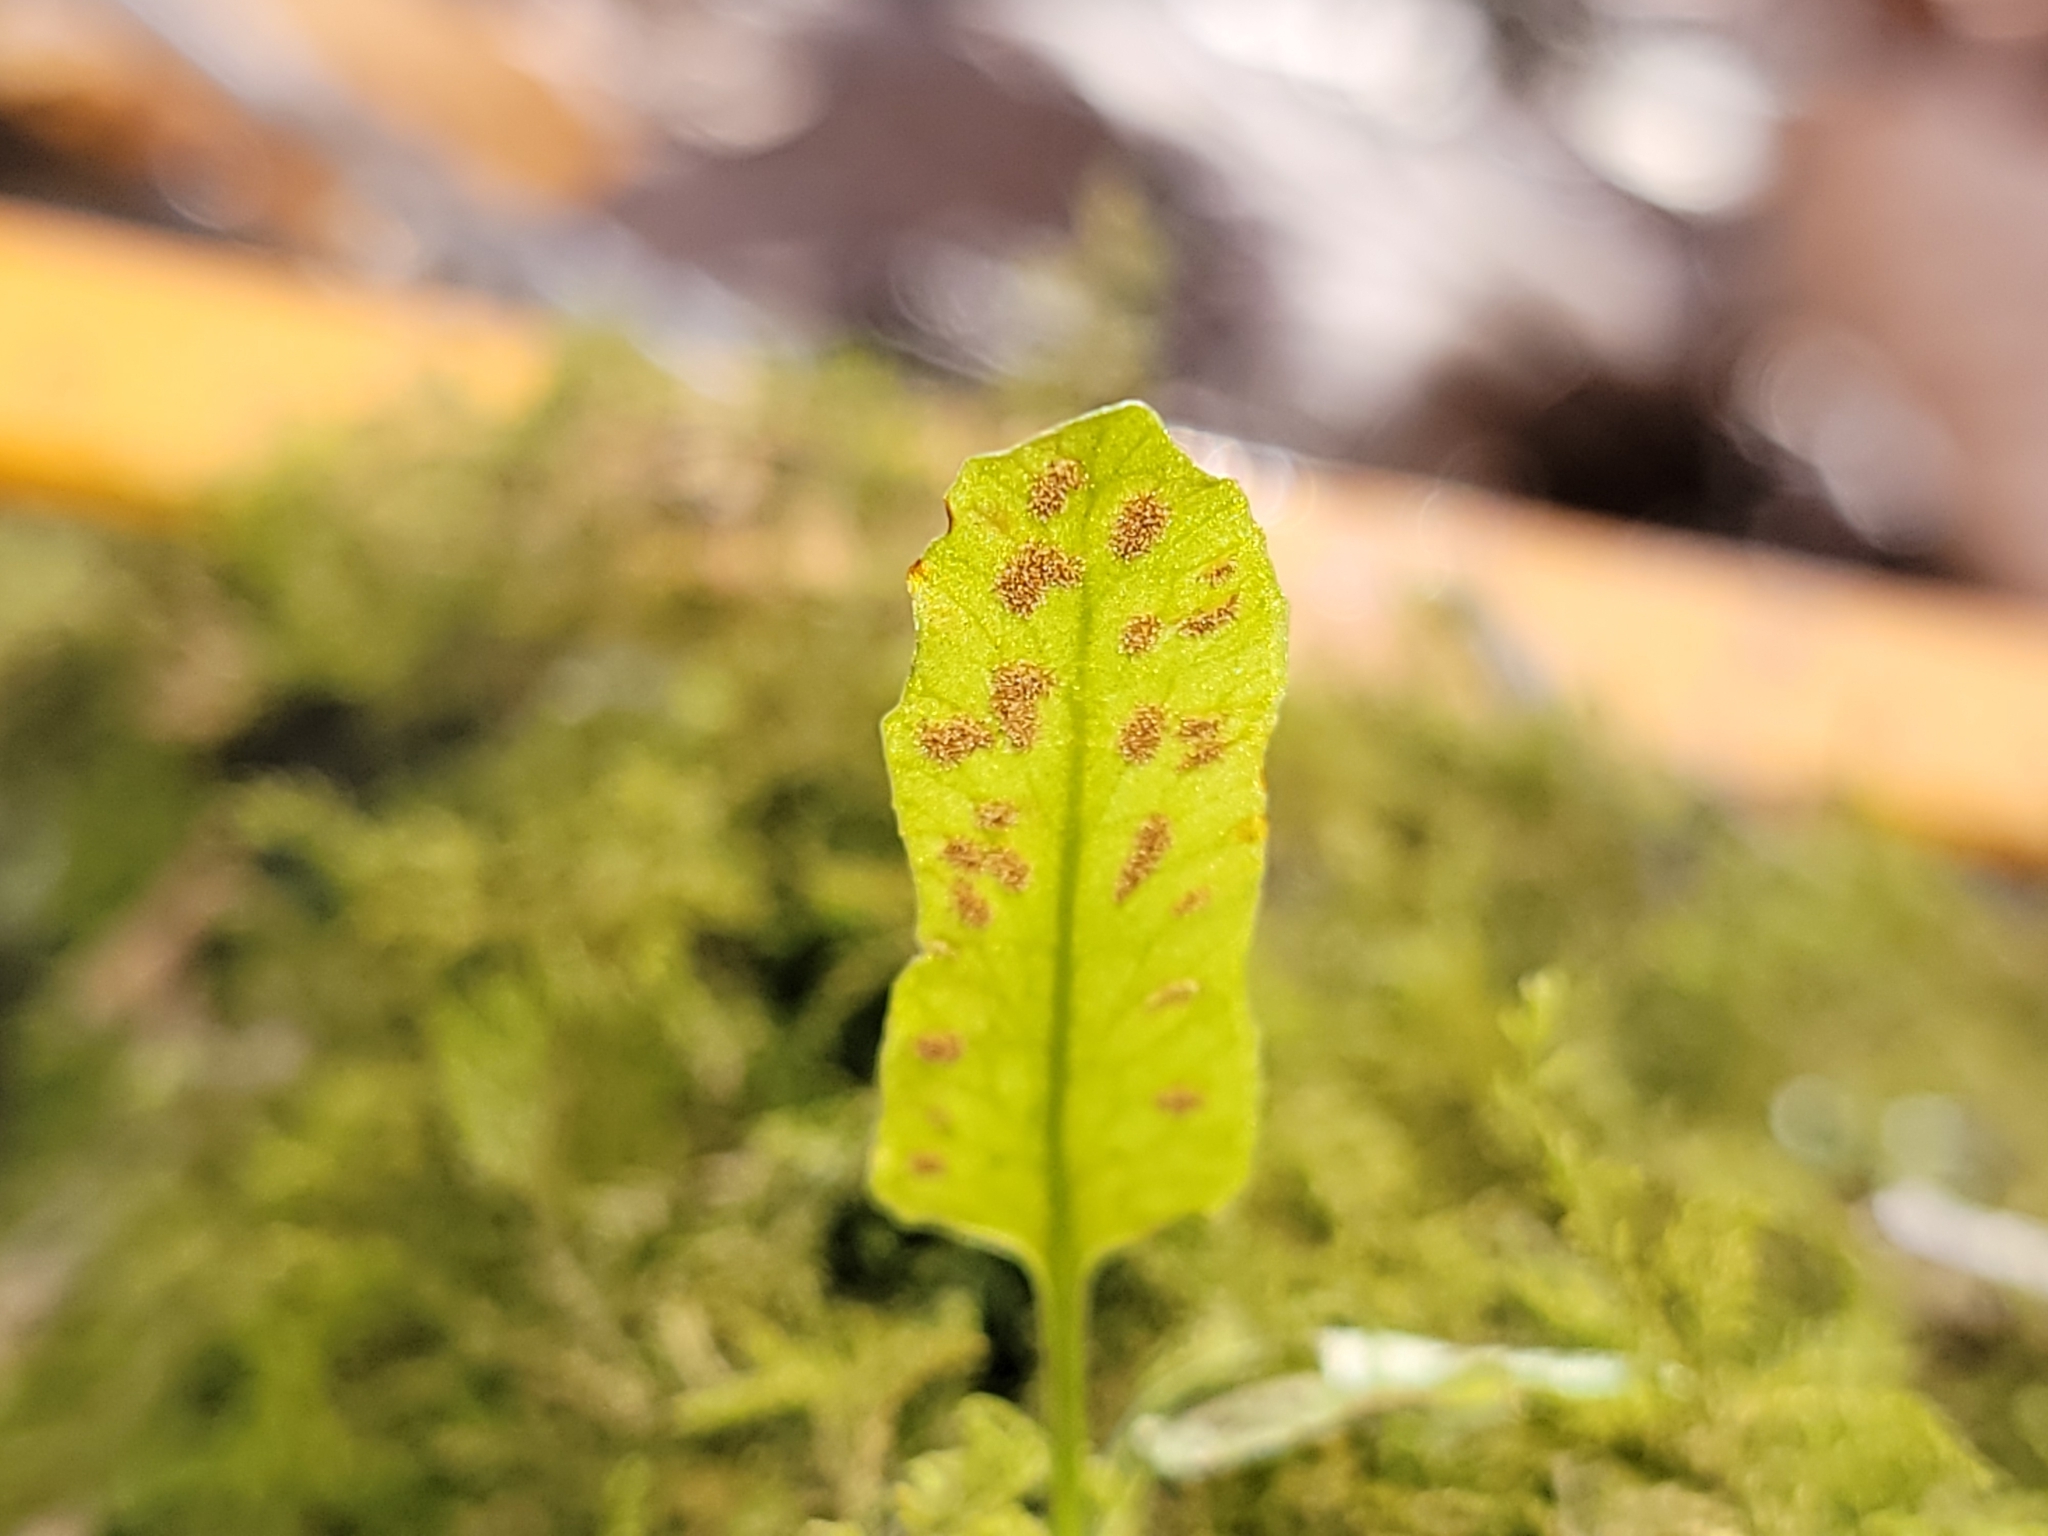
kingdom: Plantae
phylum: Tracheophyta
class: Polypodiopsida
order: Polypodiales
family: Aspleniaceae
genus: Asplenium
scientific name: Asplenium rhizophyllum
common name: Walking fern
